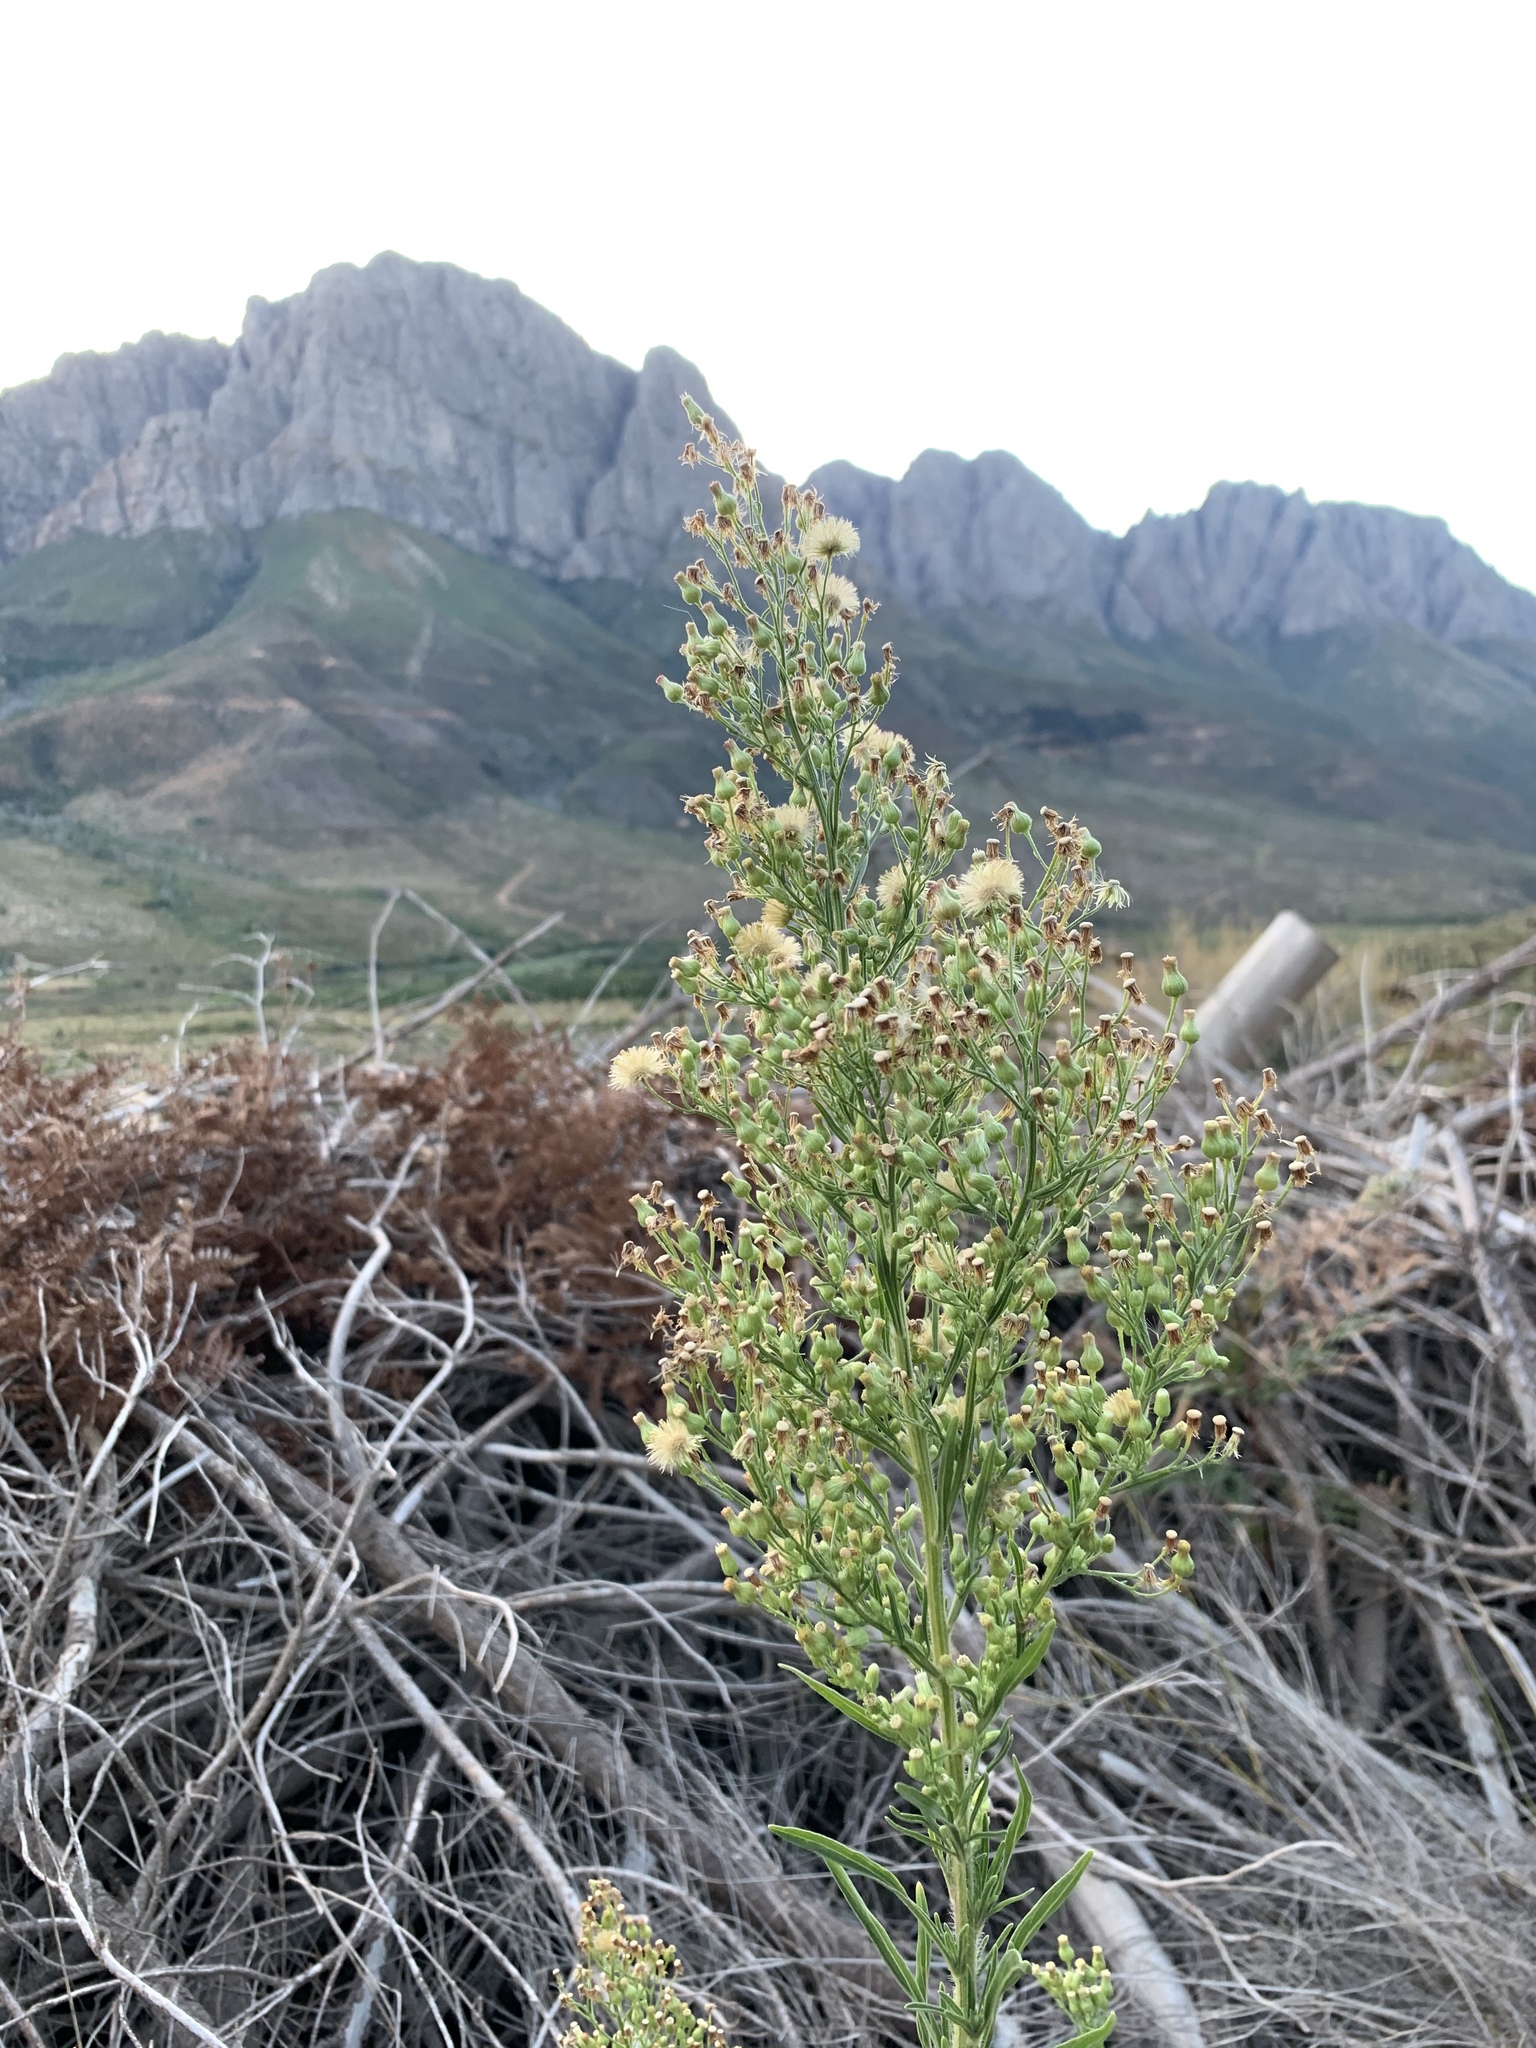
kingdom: Plantae
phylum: Tracheophyta
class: Magnoliopsida
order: Asterales
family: Asteraceae
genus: Erigeron
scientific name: Erigeron sumatrensis
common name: Daisy
